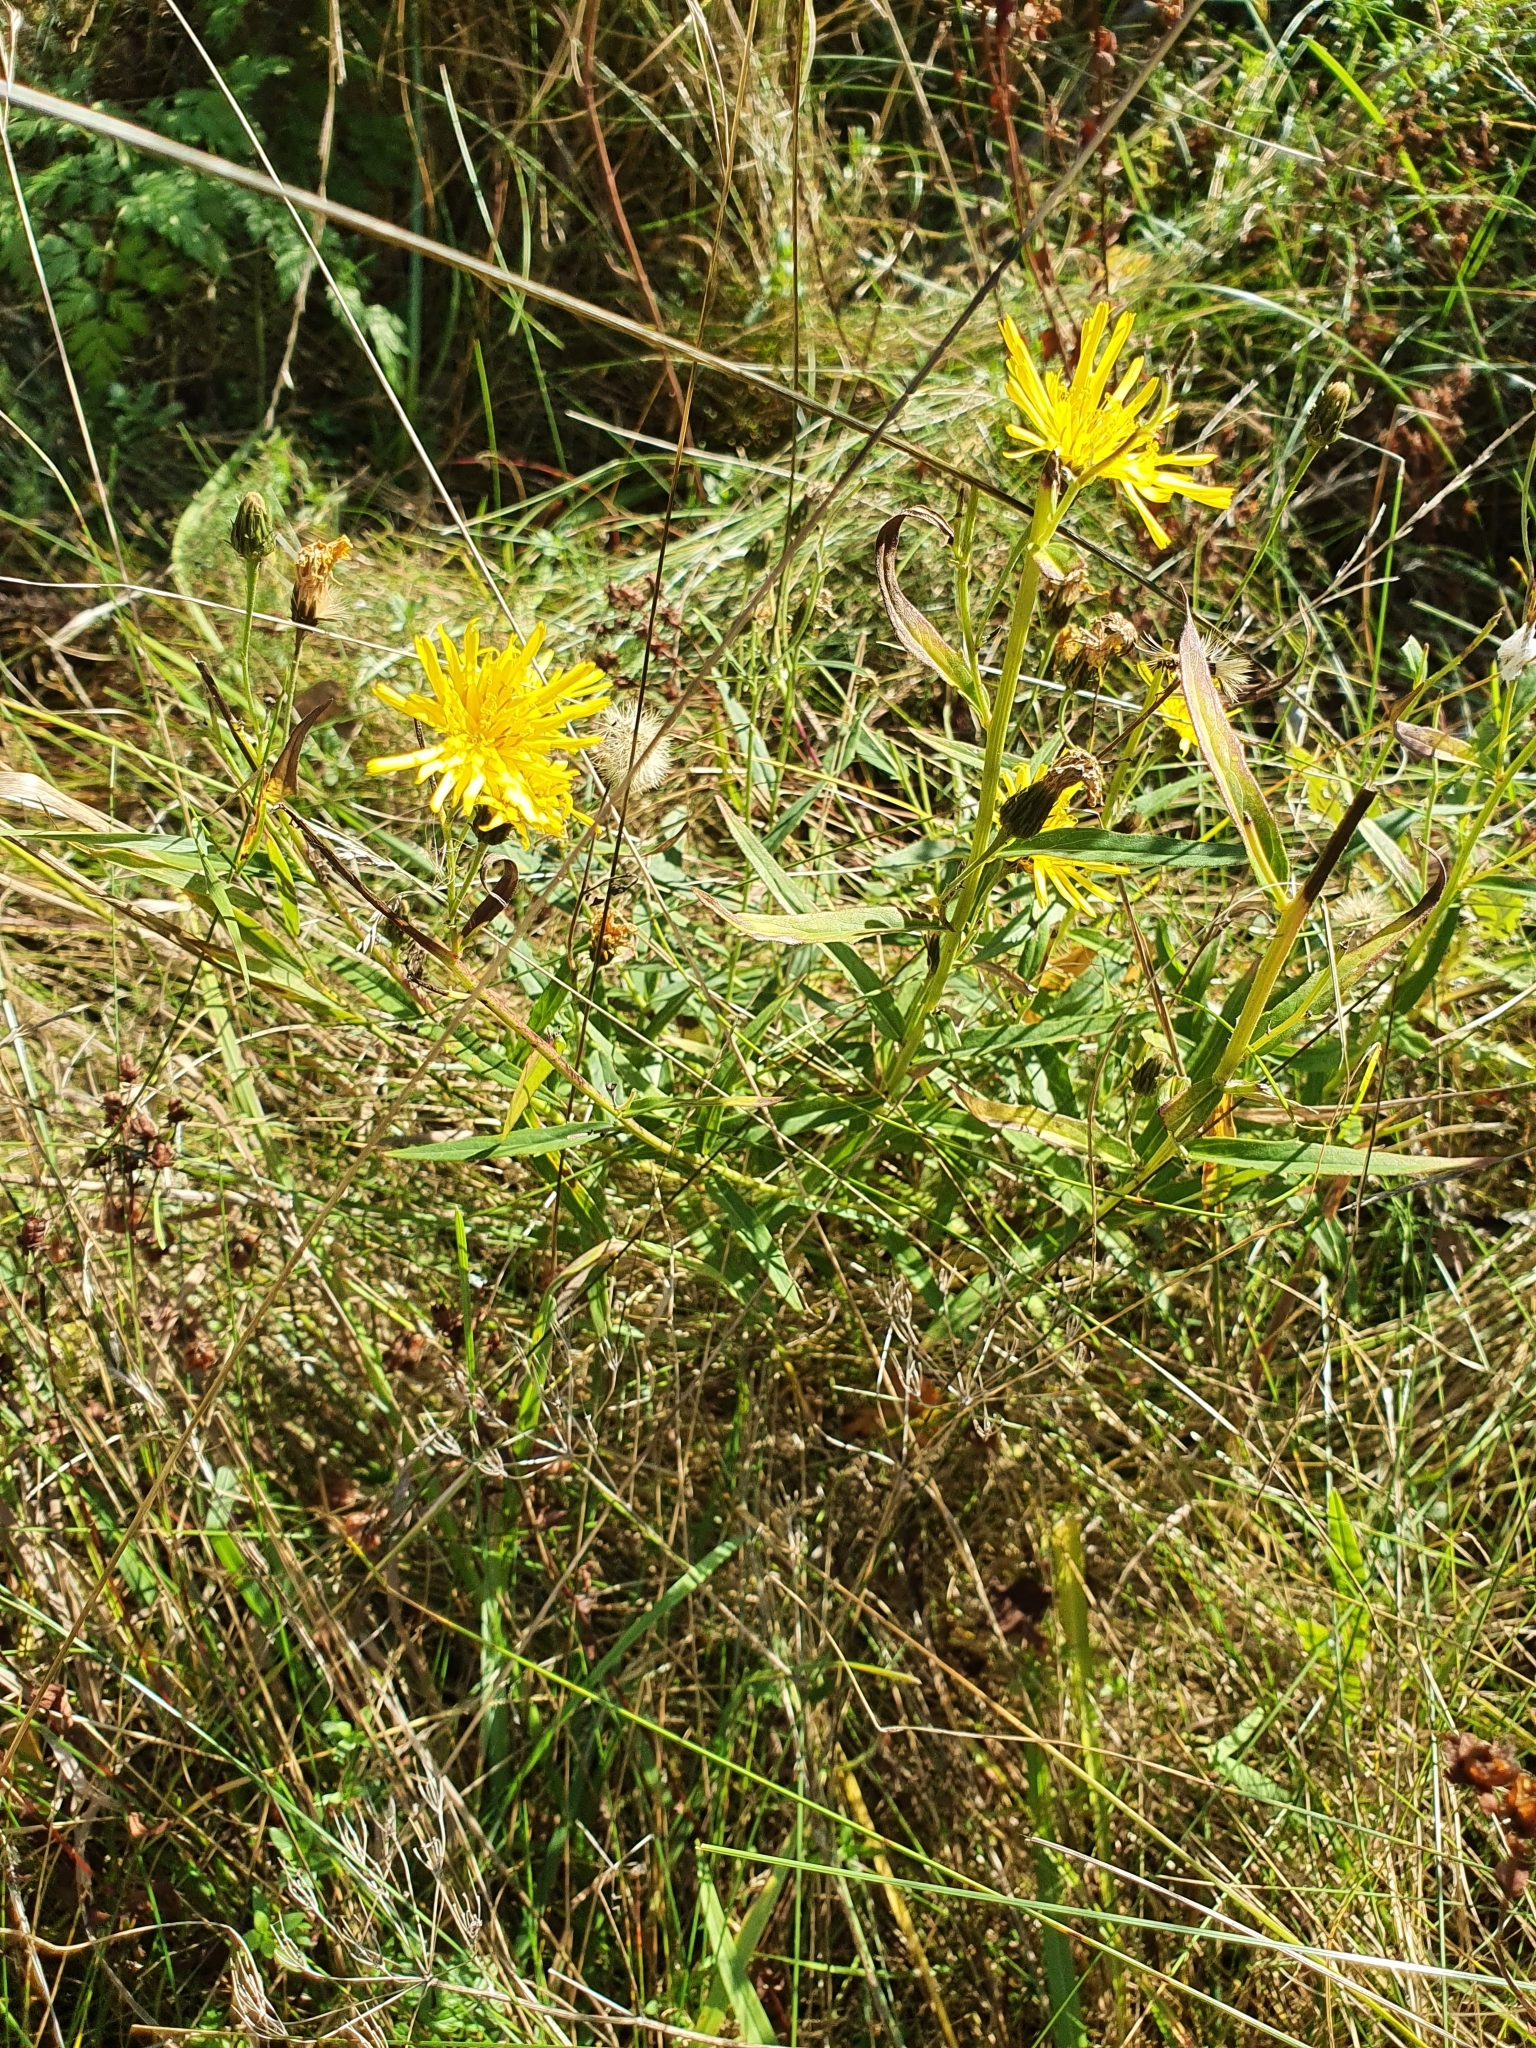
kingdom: Plantae
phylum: Tracheophyta
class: Magnoliopsida
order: Asterales
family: Asteraceae
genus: Hieracium
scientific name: Hieracium umbellatum
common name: Northern hawkweed
